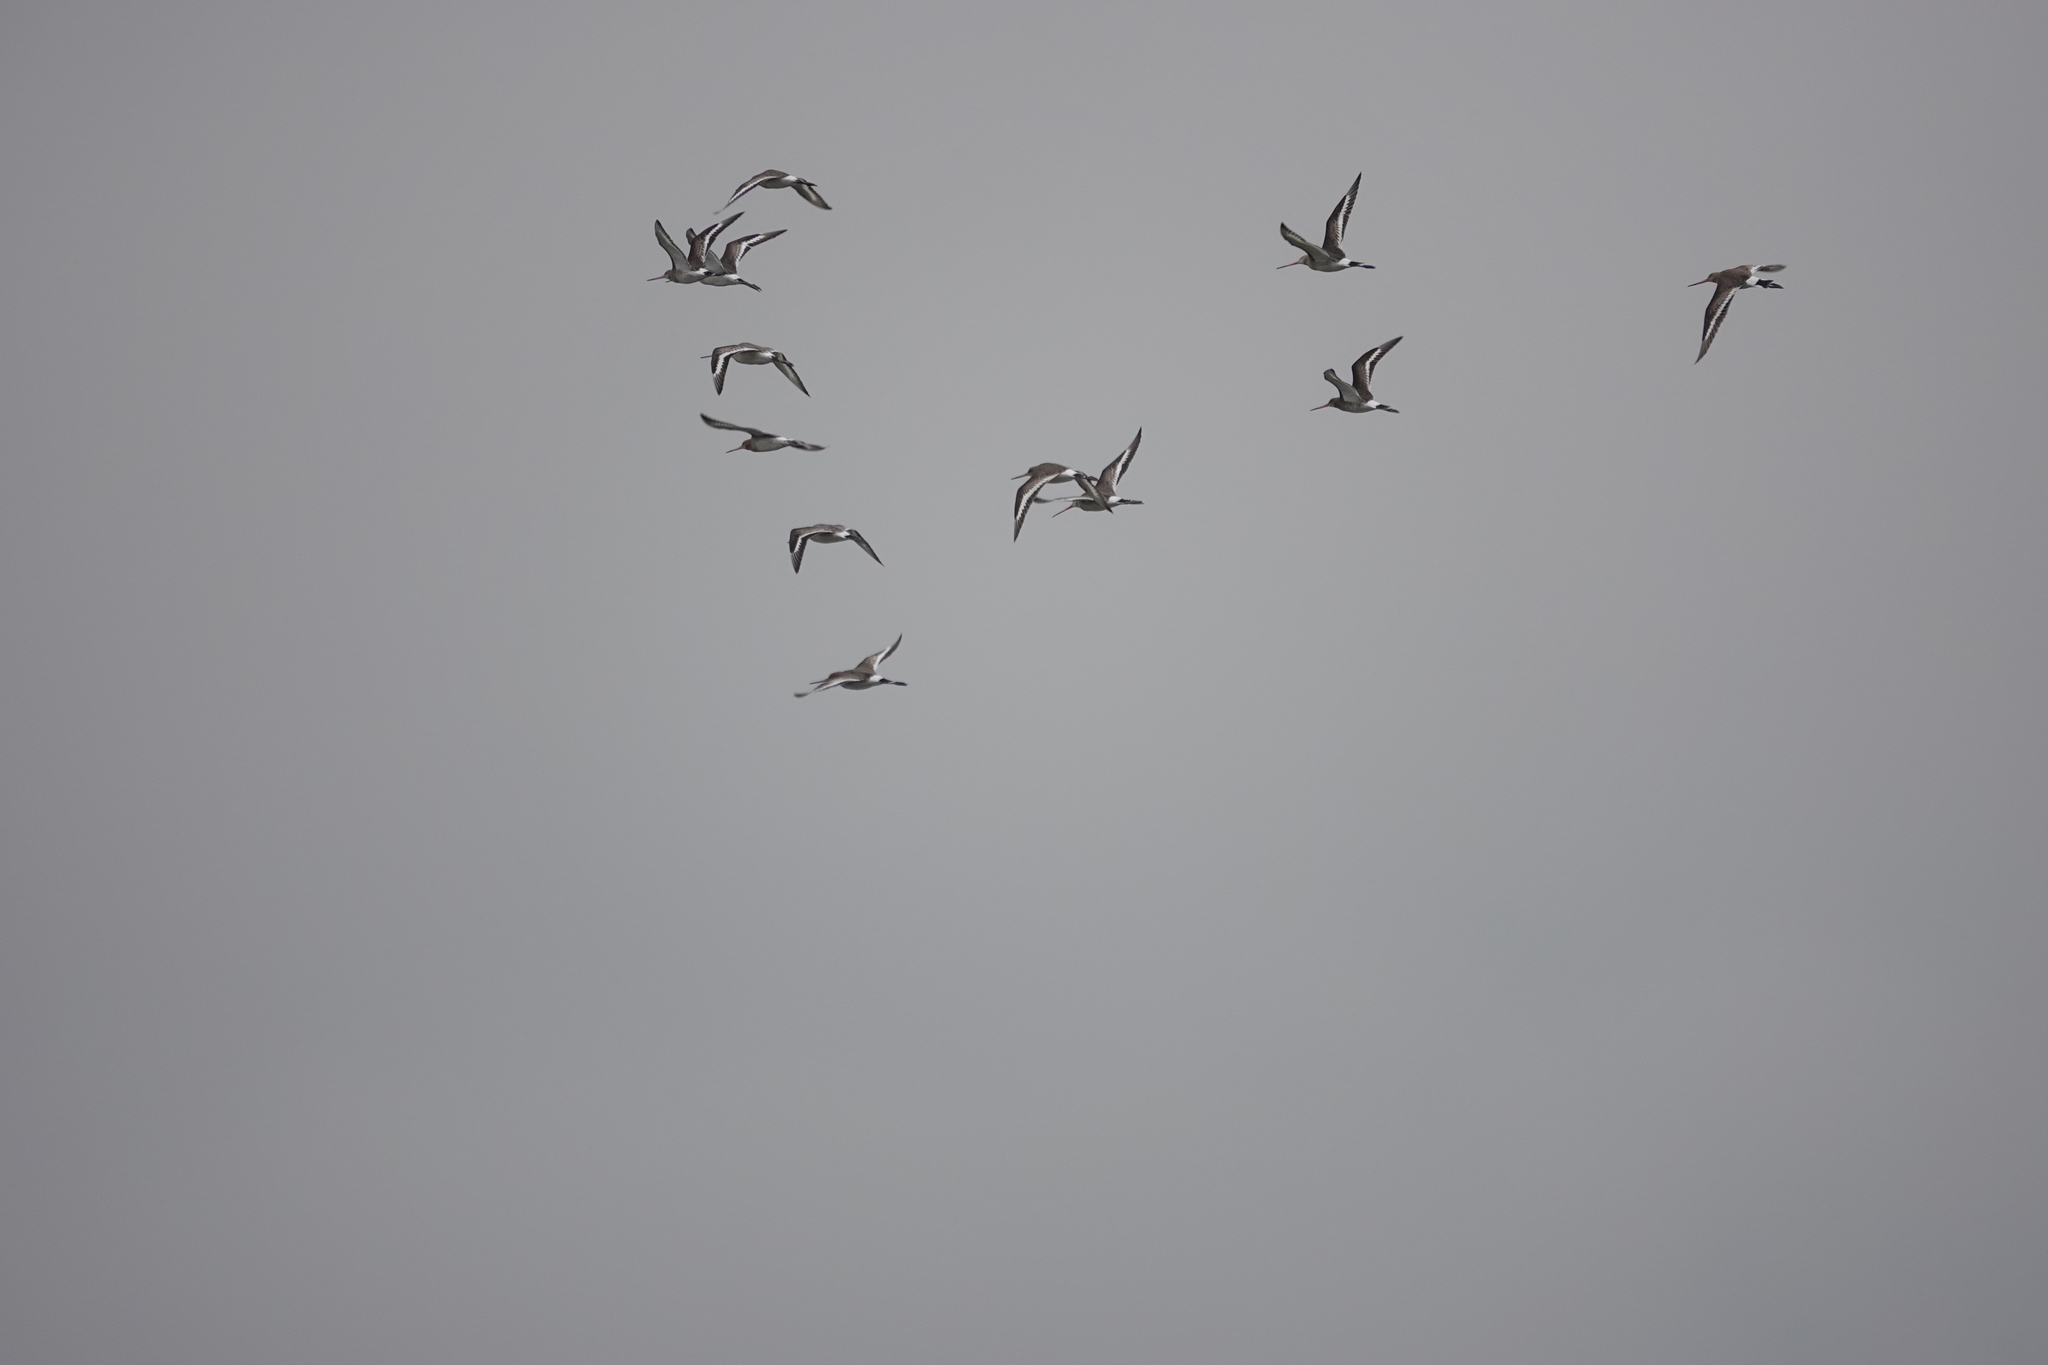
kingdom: Animalia
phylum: Chordata
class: Aves
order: Charadriiformes
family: Scolopacidae
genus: Limosa
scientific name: Limosa limosa
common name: Black-tailed godwit
